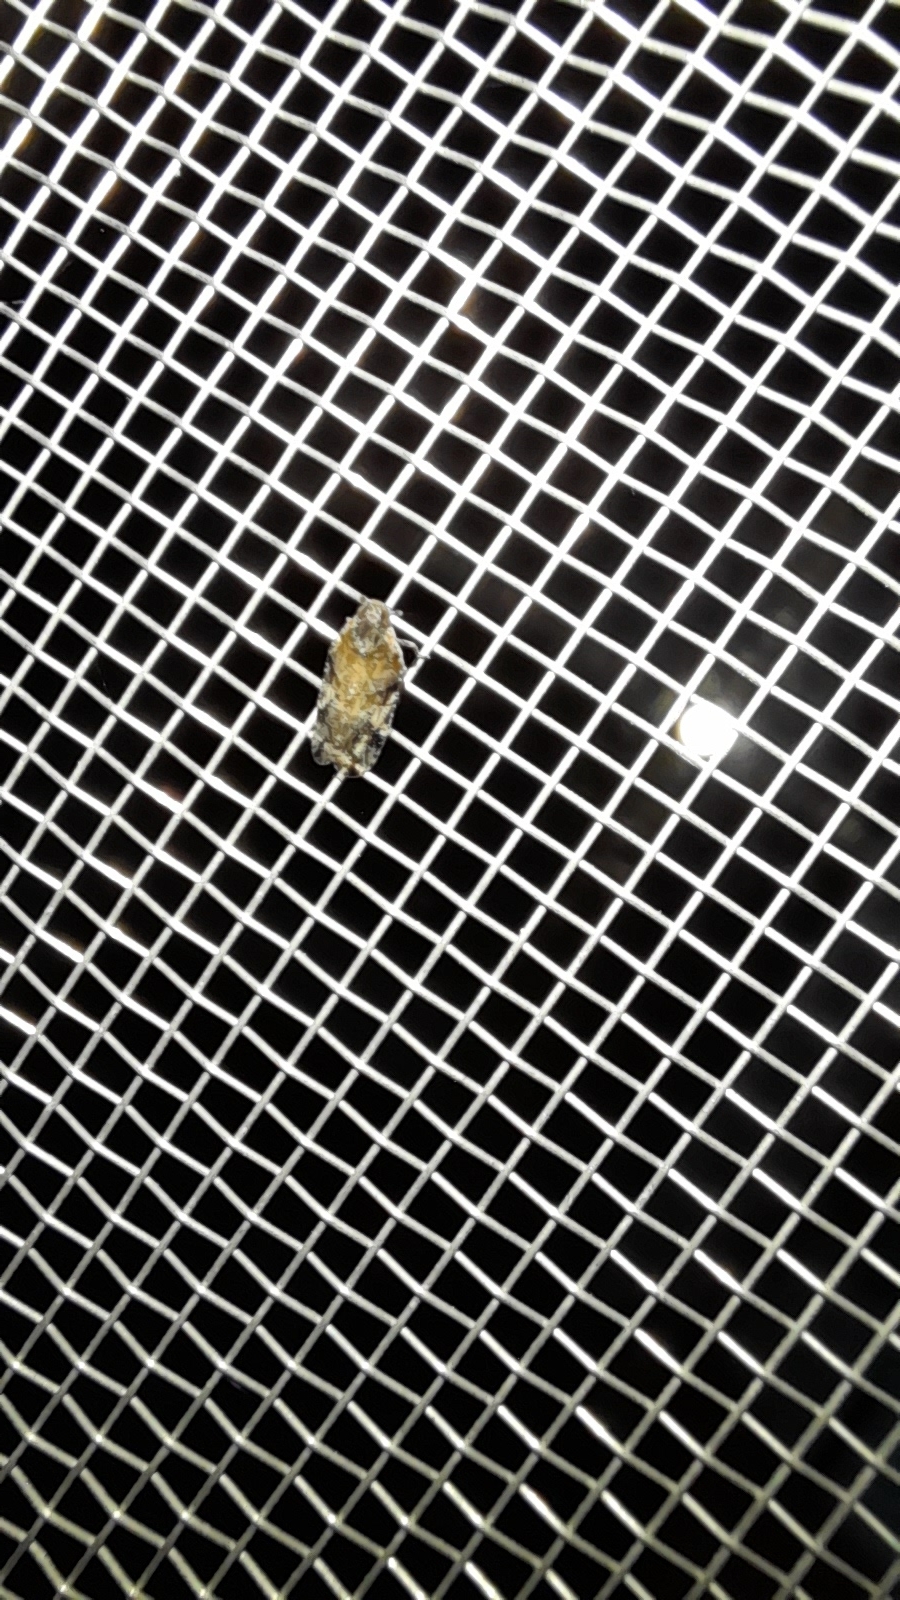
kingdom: Animalia
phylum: Arthropoda
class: Insecta
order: Hemiptera
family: Cixiidae
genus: Cixiosoma
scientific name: Cixiosoma bonaerense
